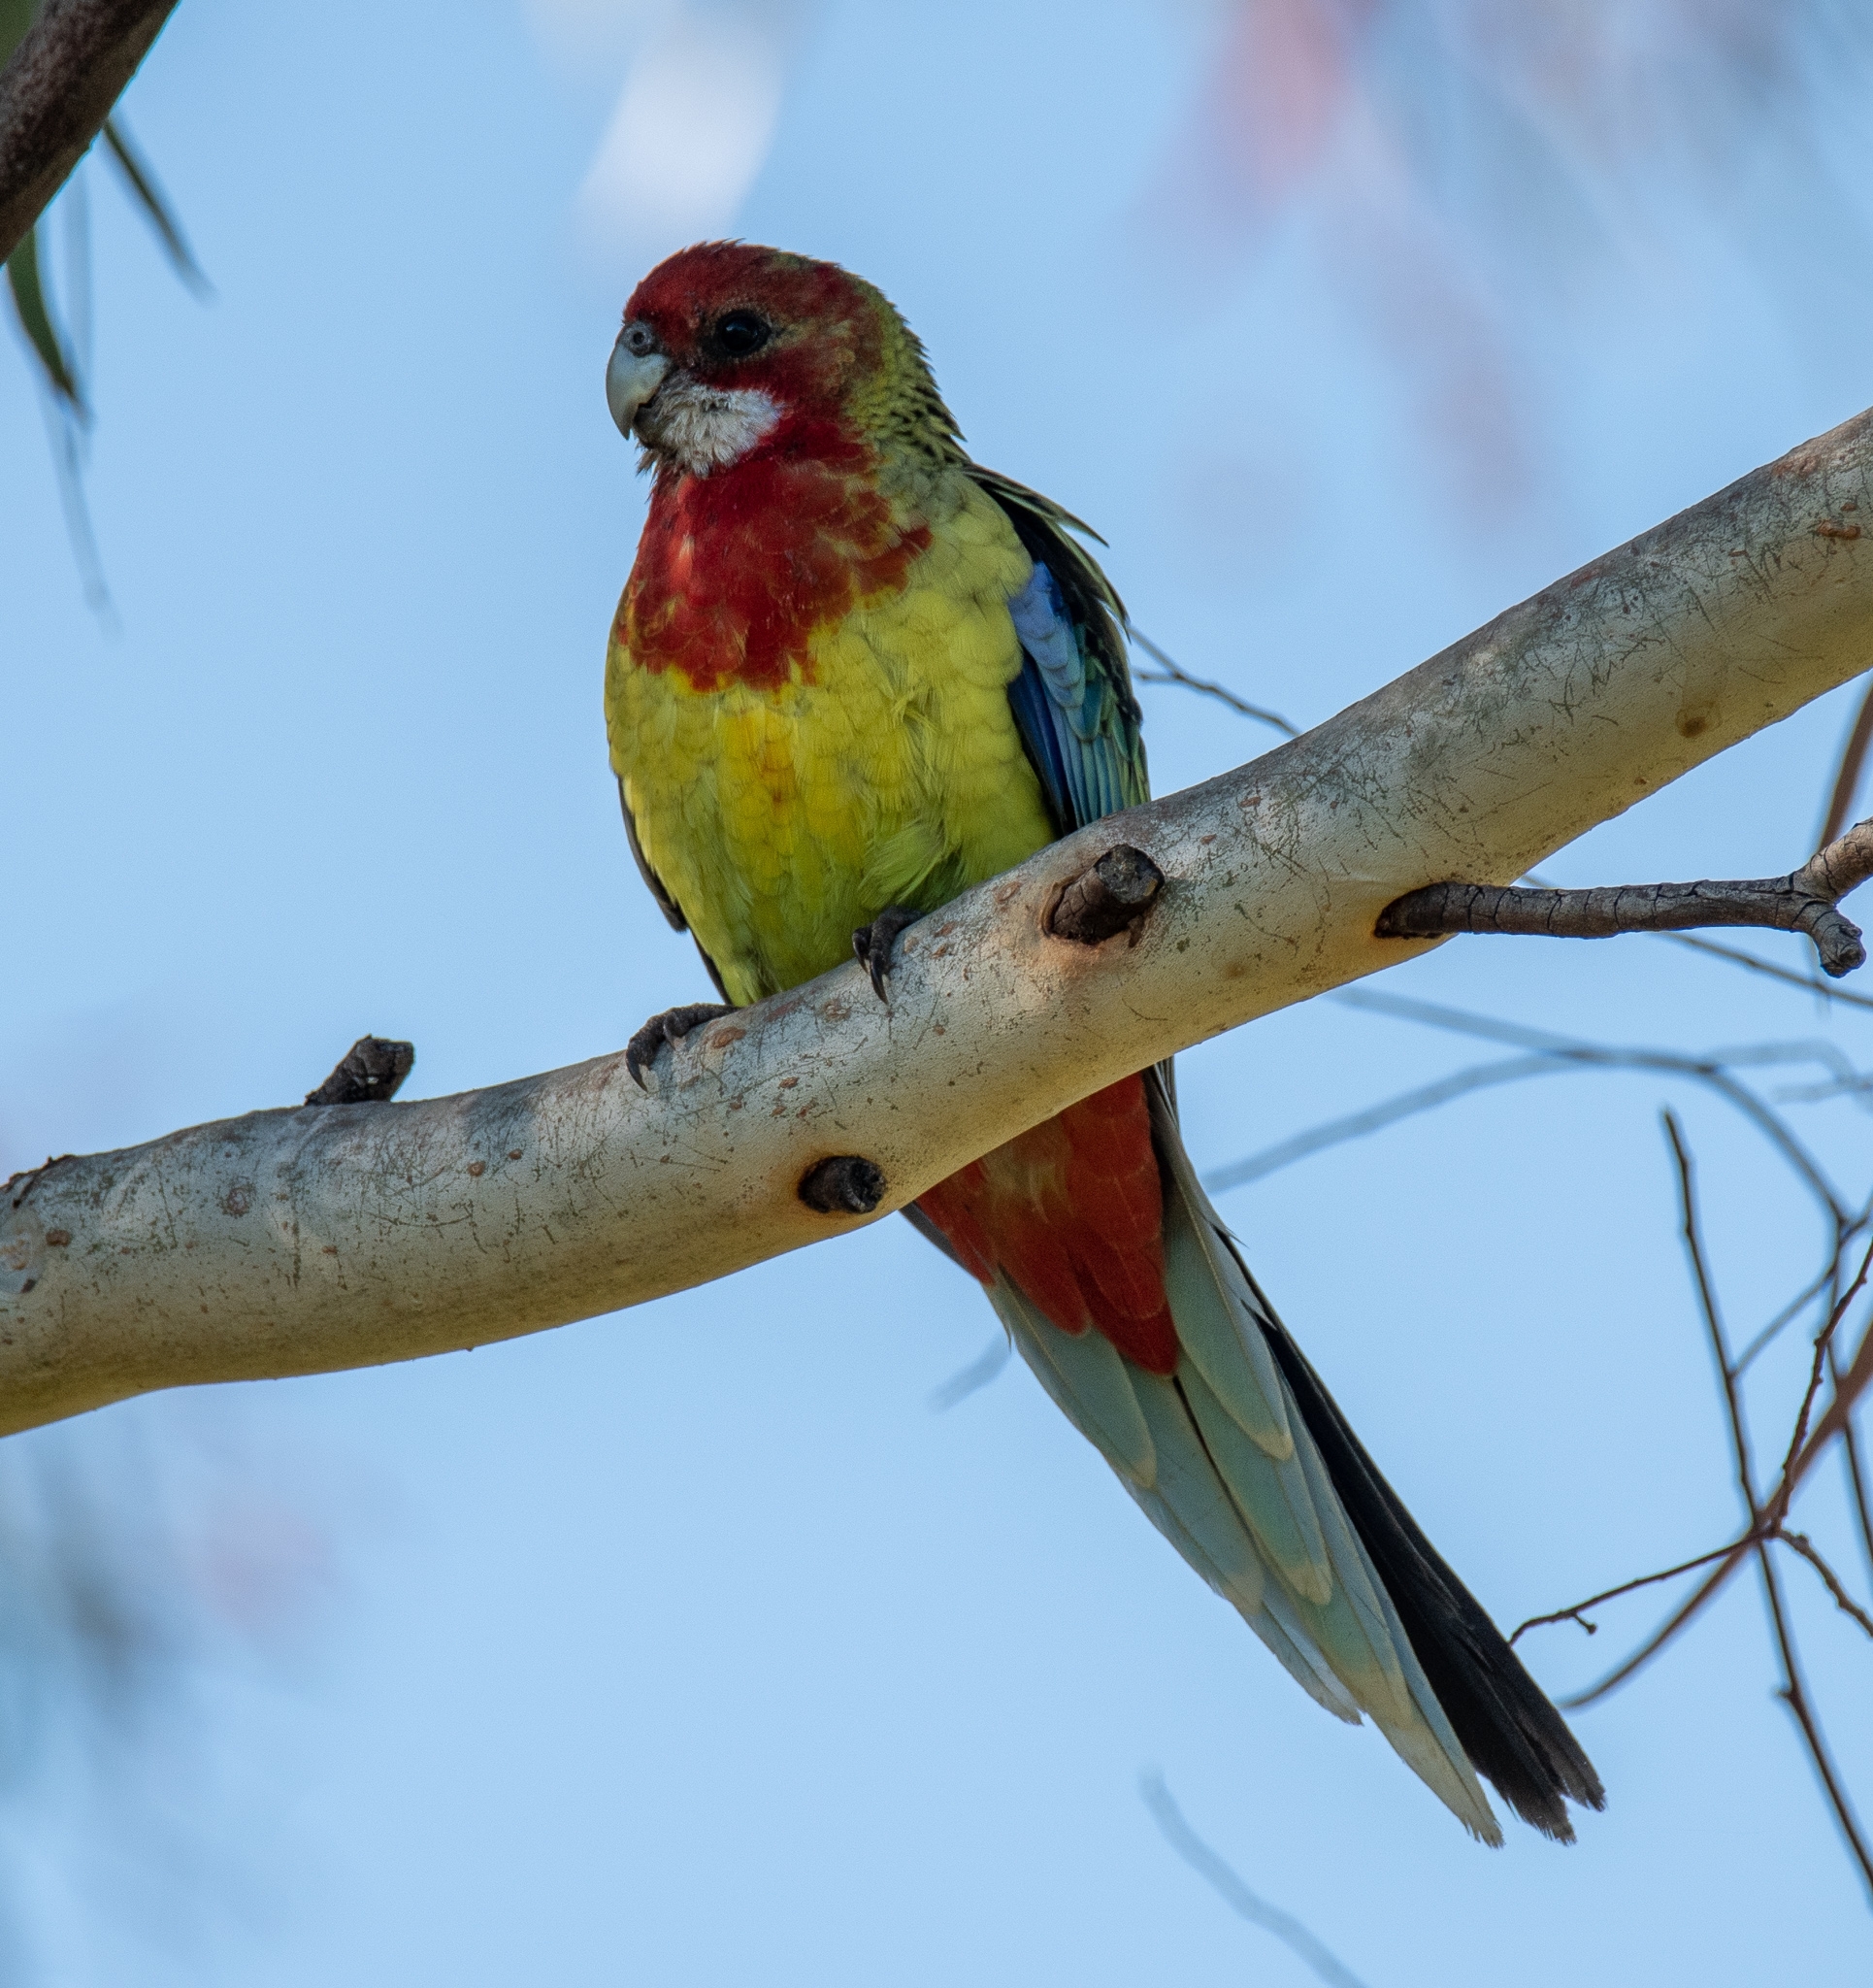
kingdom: Animalia
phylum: Chordata
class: Aves
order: Psittaciformes
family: Psittacidae
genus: Platycercus
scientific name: Platycercus eximius
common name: Eastern rosella
